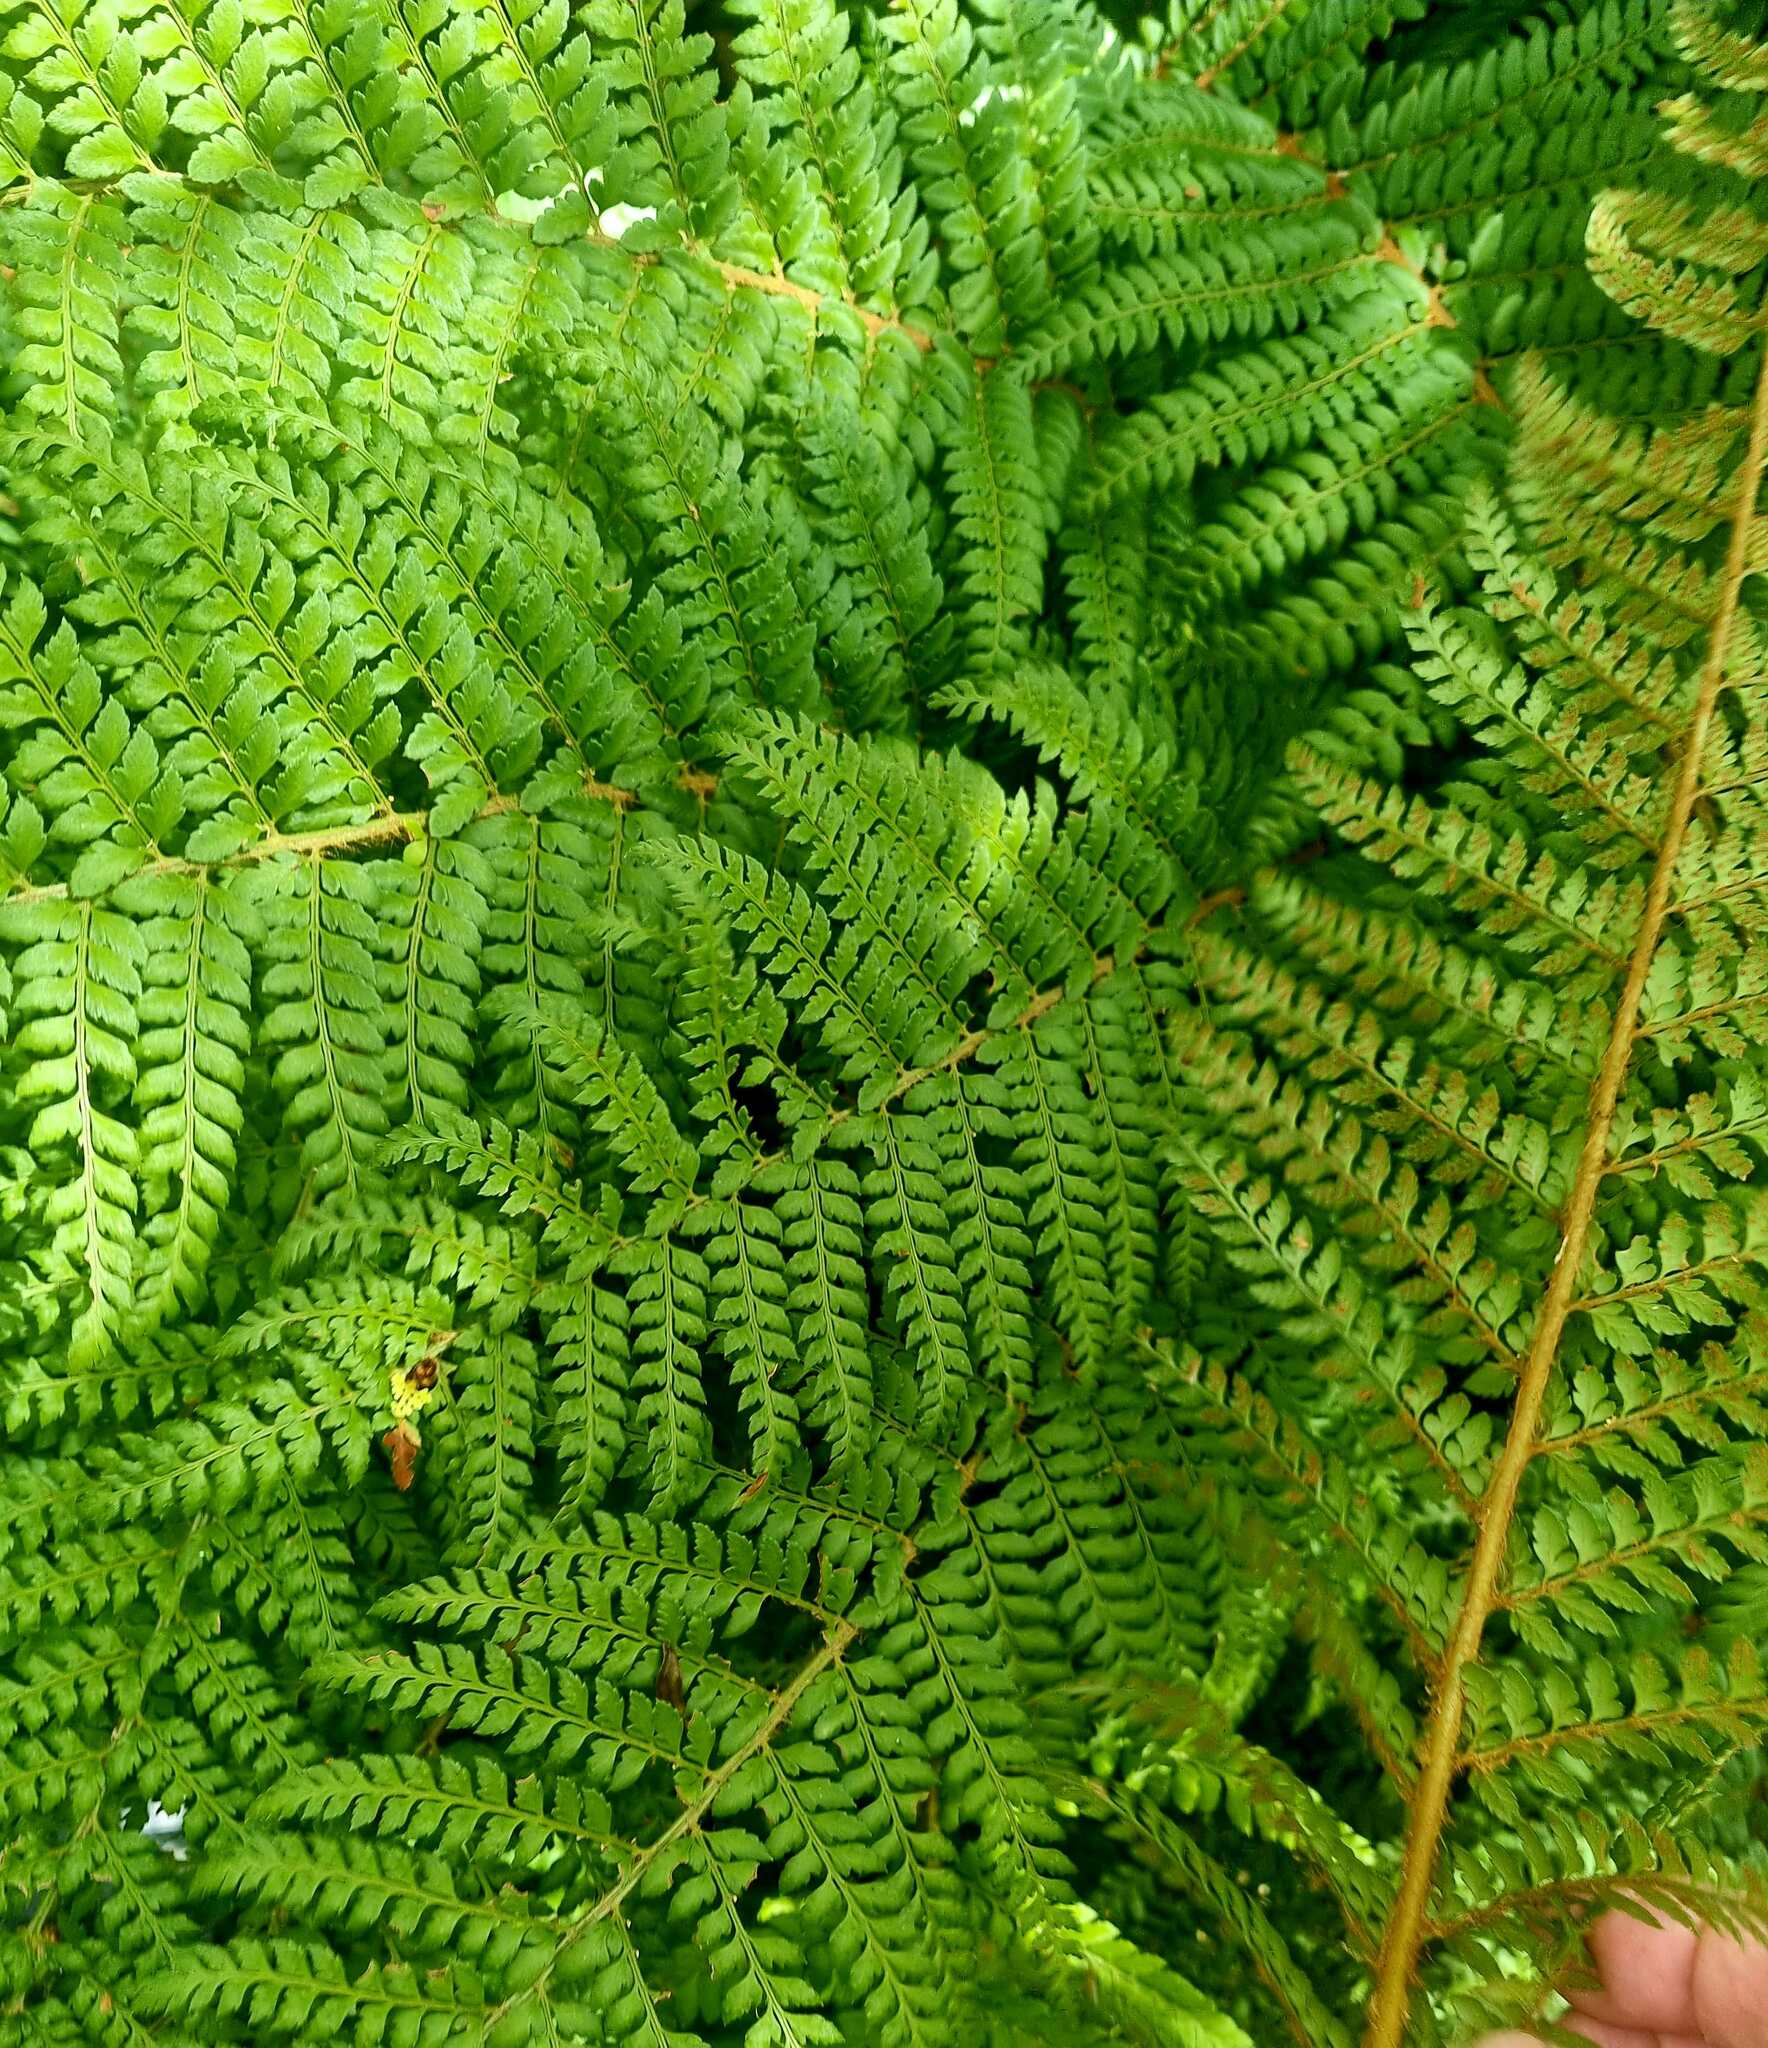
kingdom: Plantae
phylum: Tracheophyta
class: Polypodiopsida
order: Polypodiales
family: Dryopteridaceae
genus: Polystichum
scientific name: Polystichum proliferum
